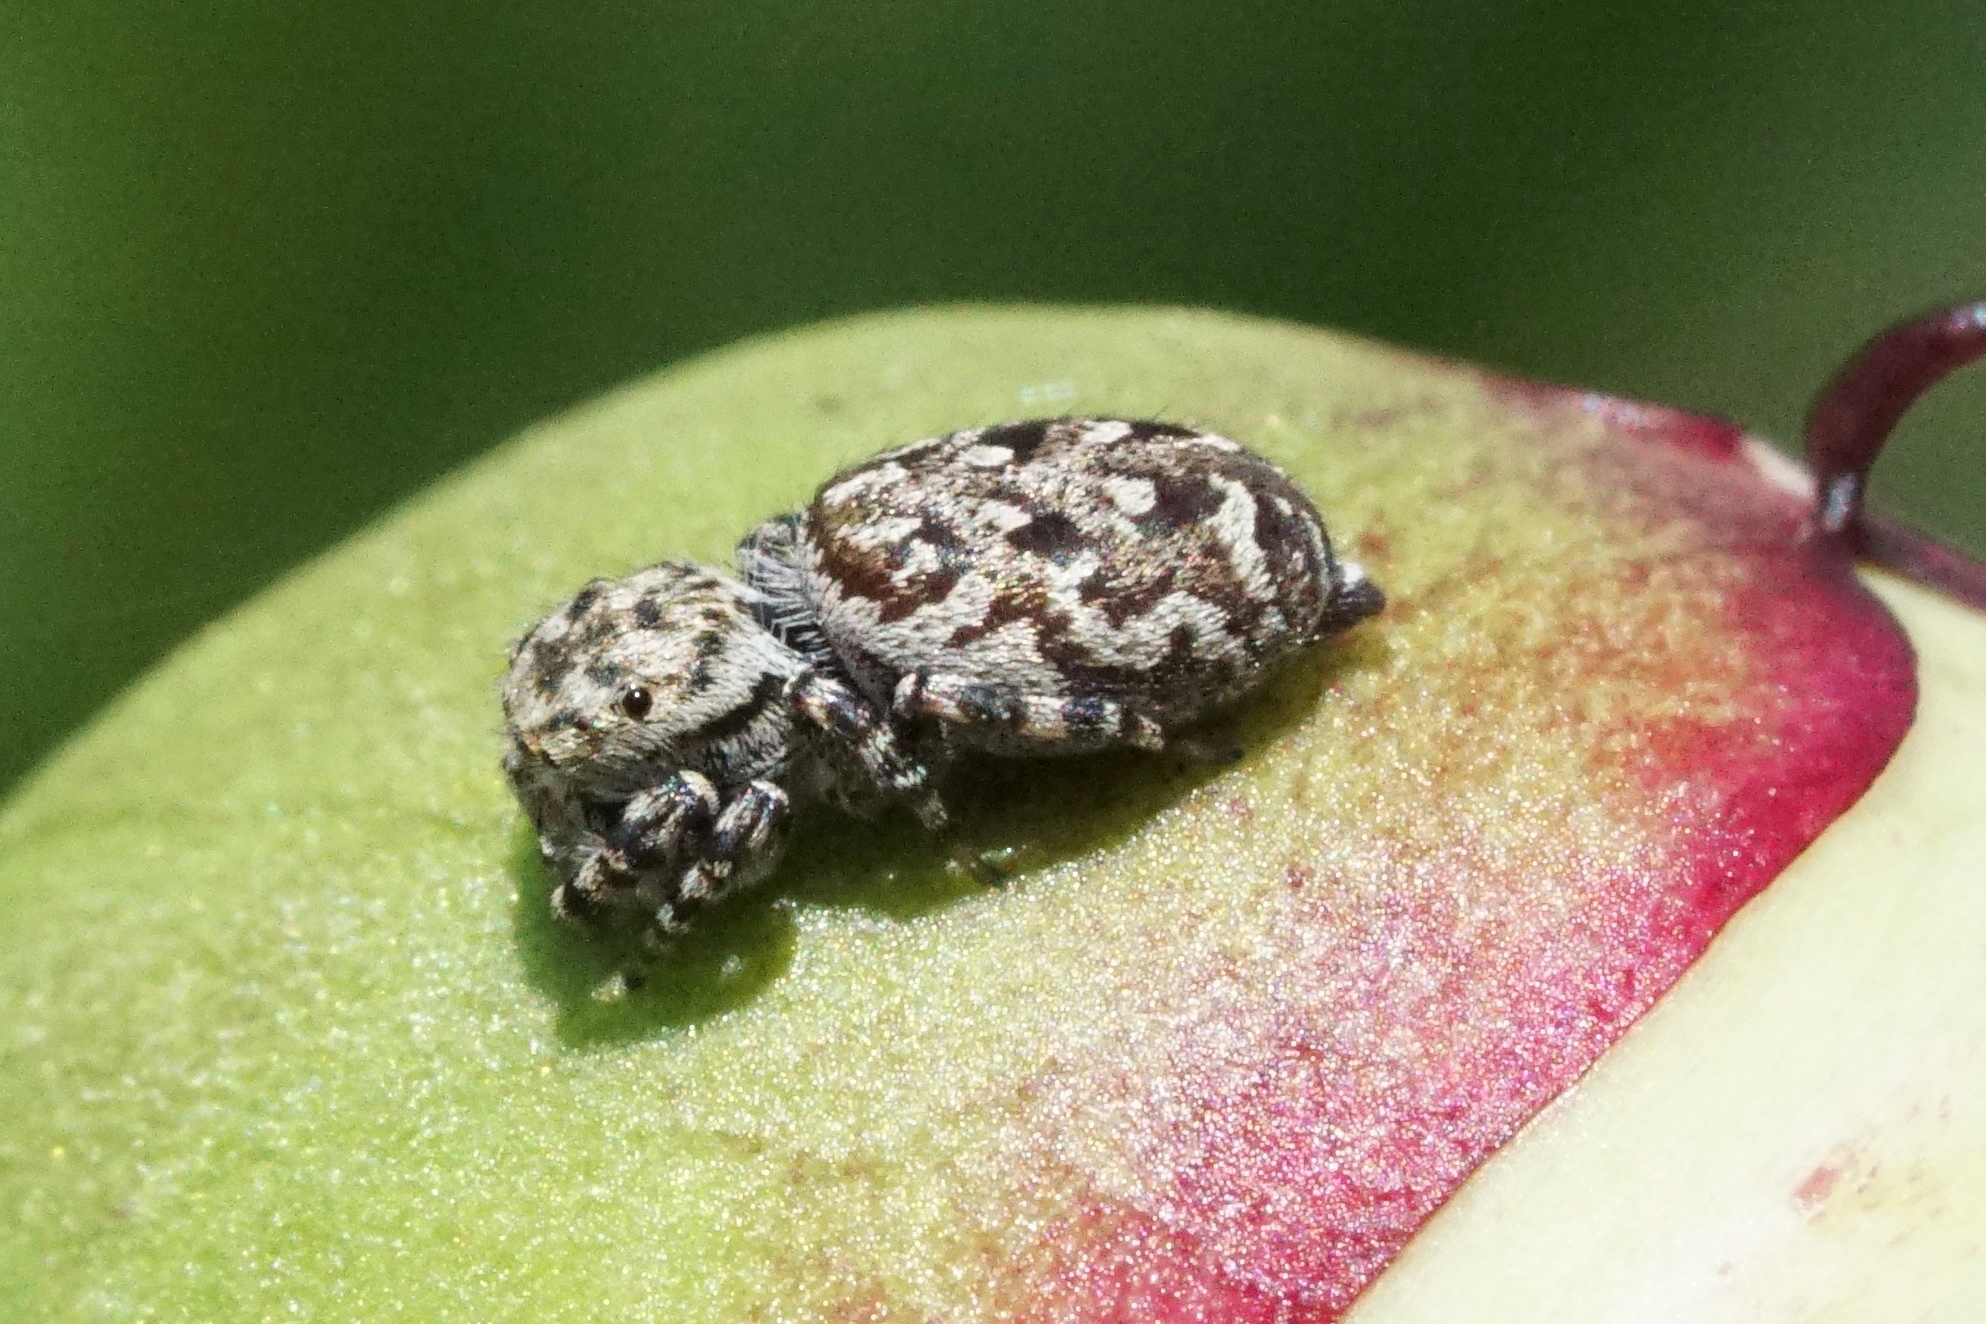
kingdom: Animalia
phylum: Arthropoda
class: Arachnida
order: Araneae
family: Salticidae
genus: Pelegrina
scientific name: Pelegrina galathea
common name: Jumping spiders
